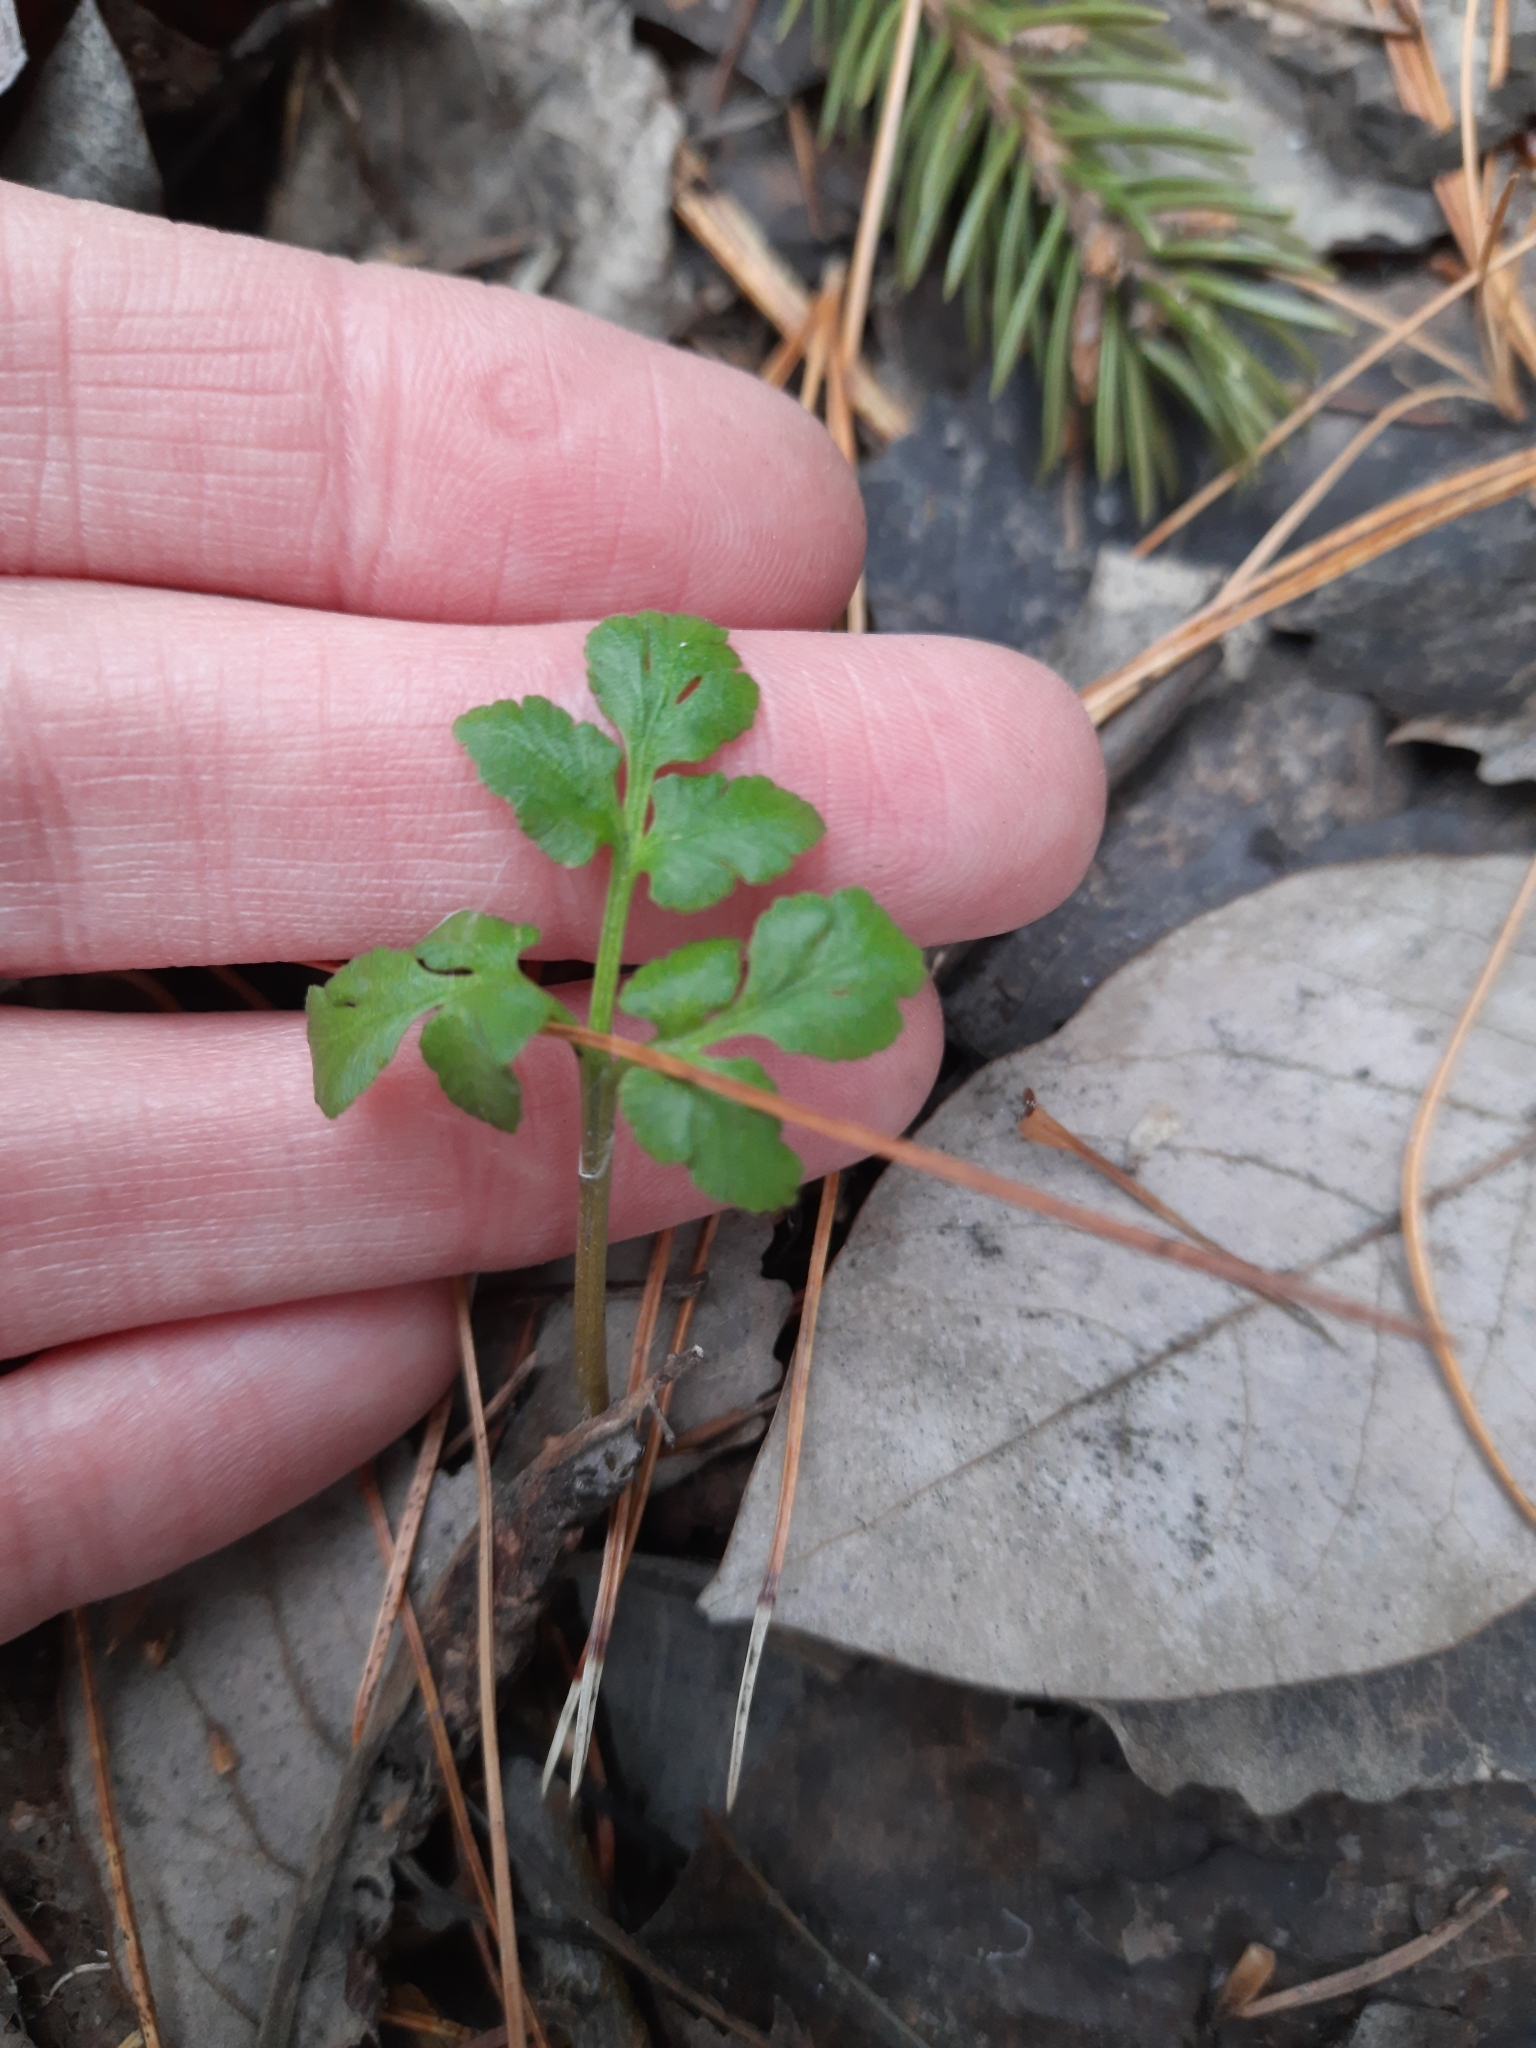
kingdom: Plantae
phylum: Tracheophyta
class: Polypodiopsida
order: Ophioglossales
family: Ophioglossaceae
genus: Sceptridium
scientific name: Sceptridium multifidum
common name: Leathery grape fern
